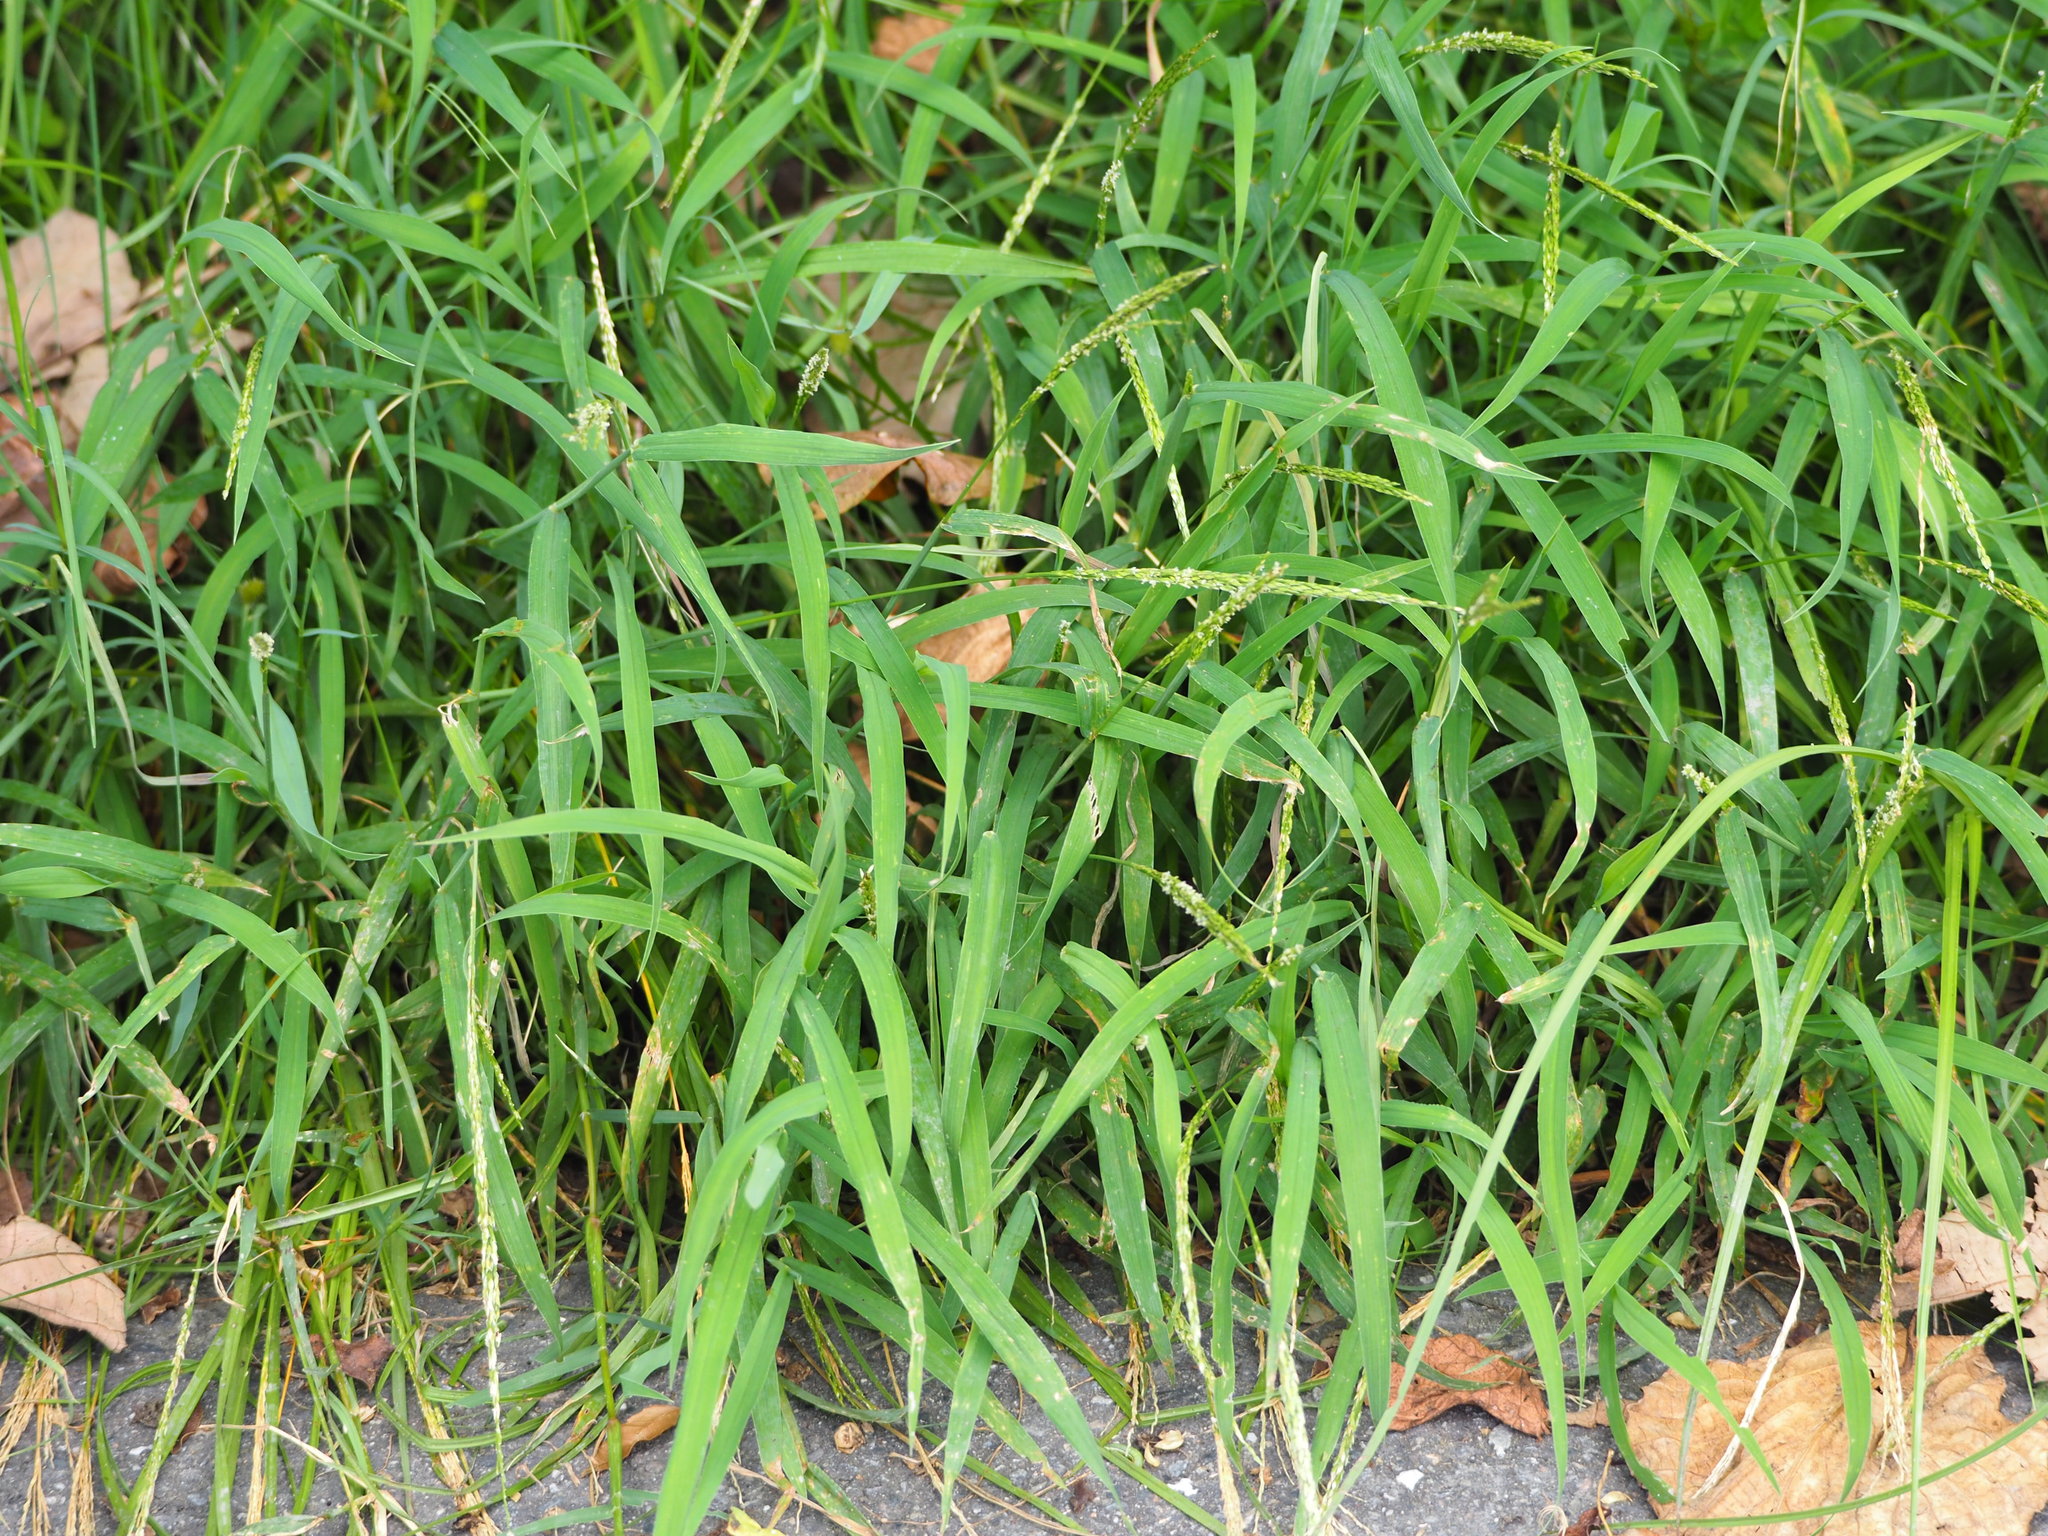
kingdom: Plantae
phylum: Tracheophyta
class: Liliopsida
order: Poales
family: Poaceae
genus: Digitaria
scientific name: Digitaria ciliaris
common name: Tropical finger-grass
